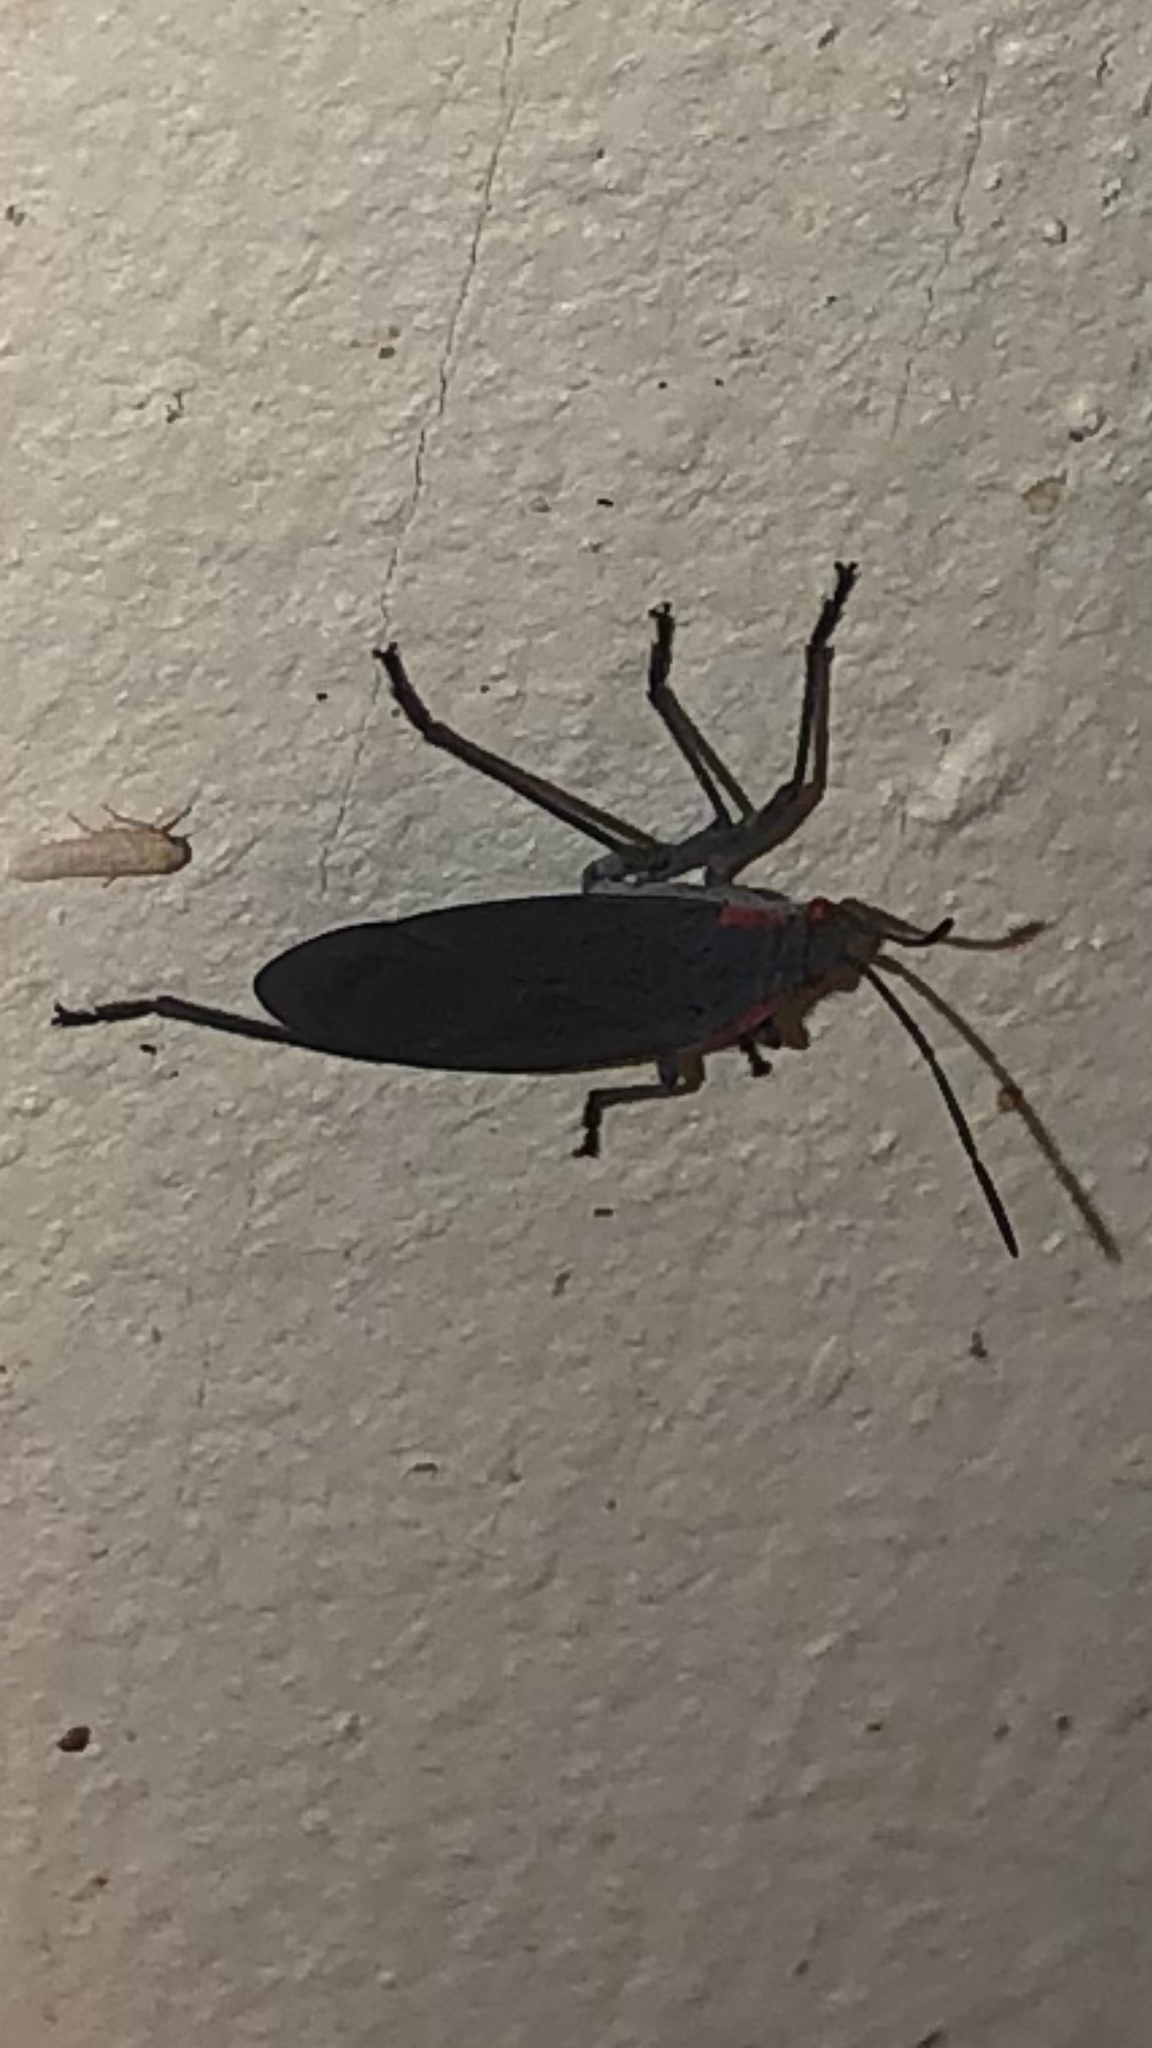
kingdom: Animalia
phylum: Arthropoda
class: Insecta
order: Hemiptera
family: Rhopalidae
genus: Jadera
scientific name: Jadera haematoloma
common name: Red-shouldered bug
